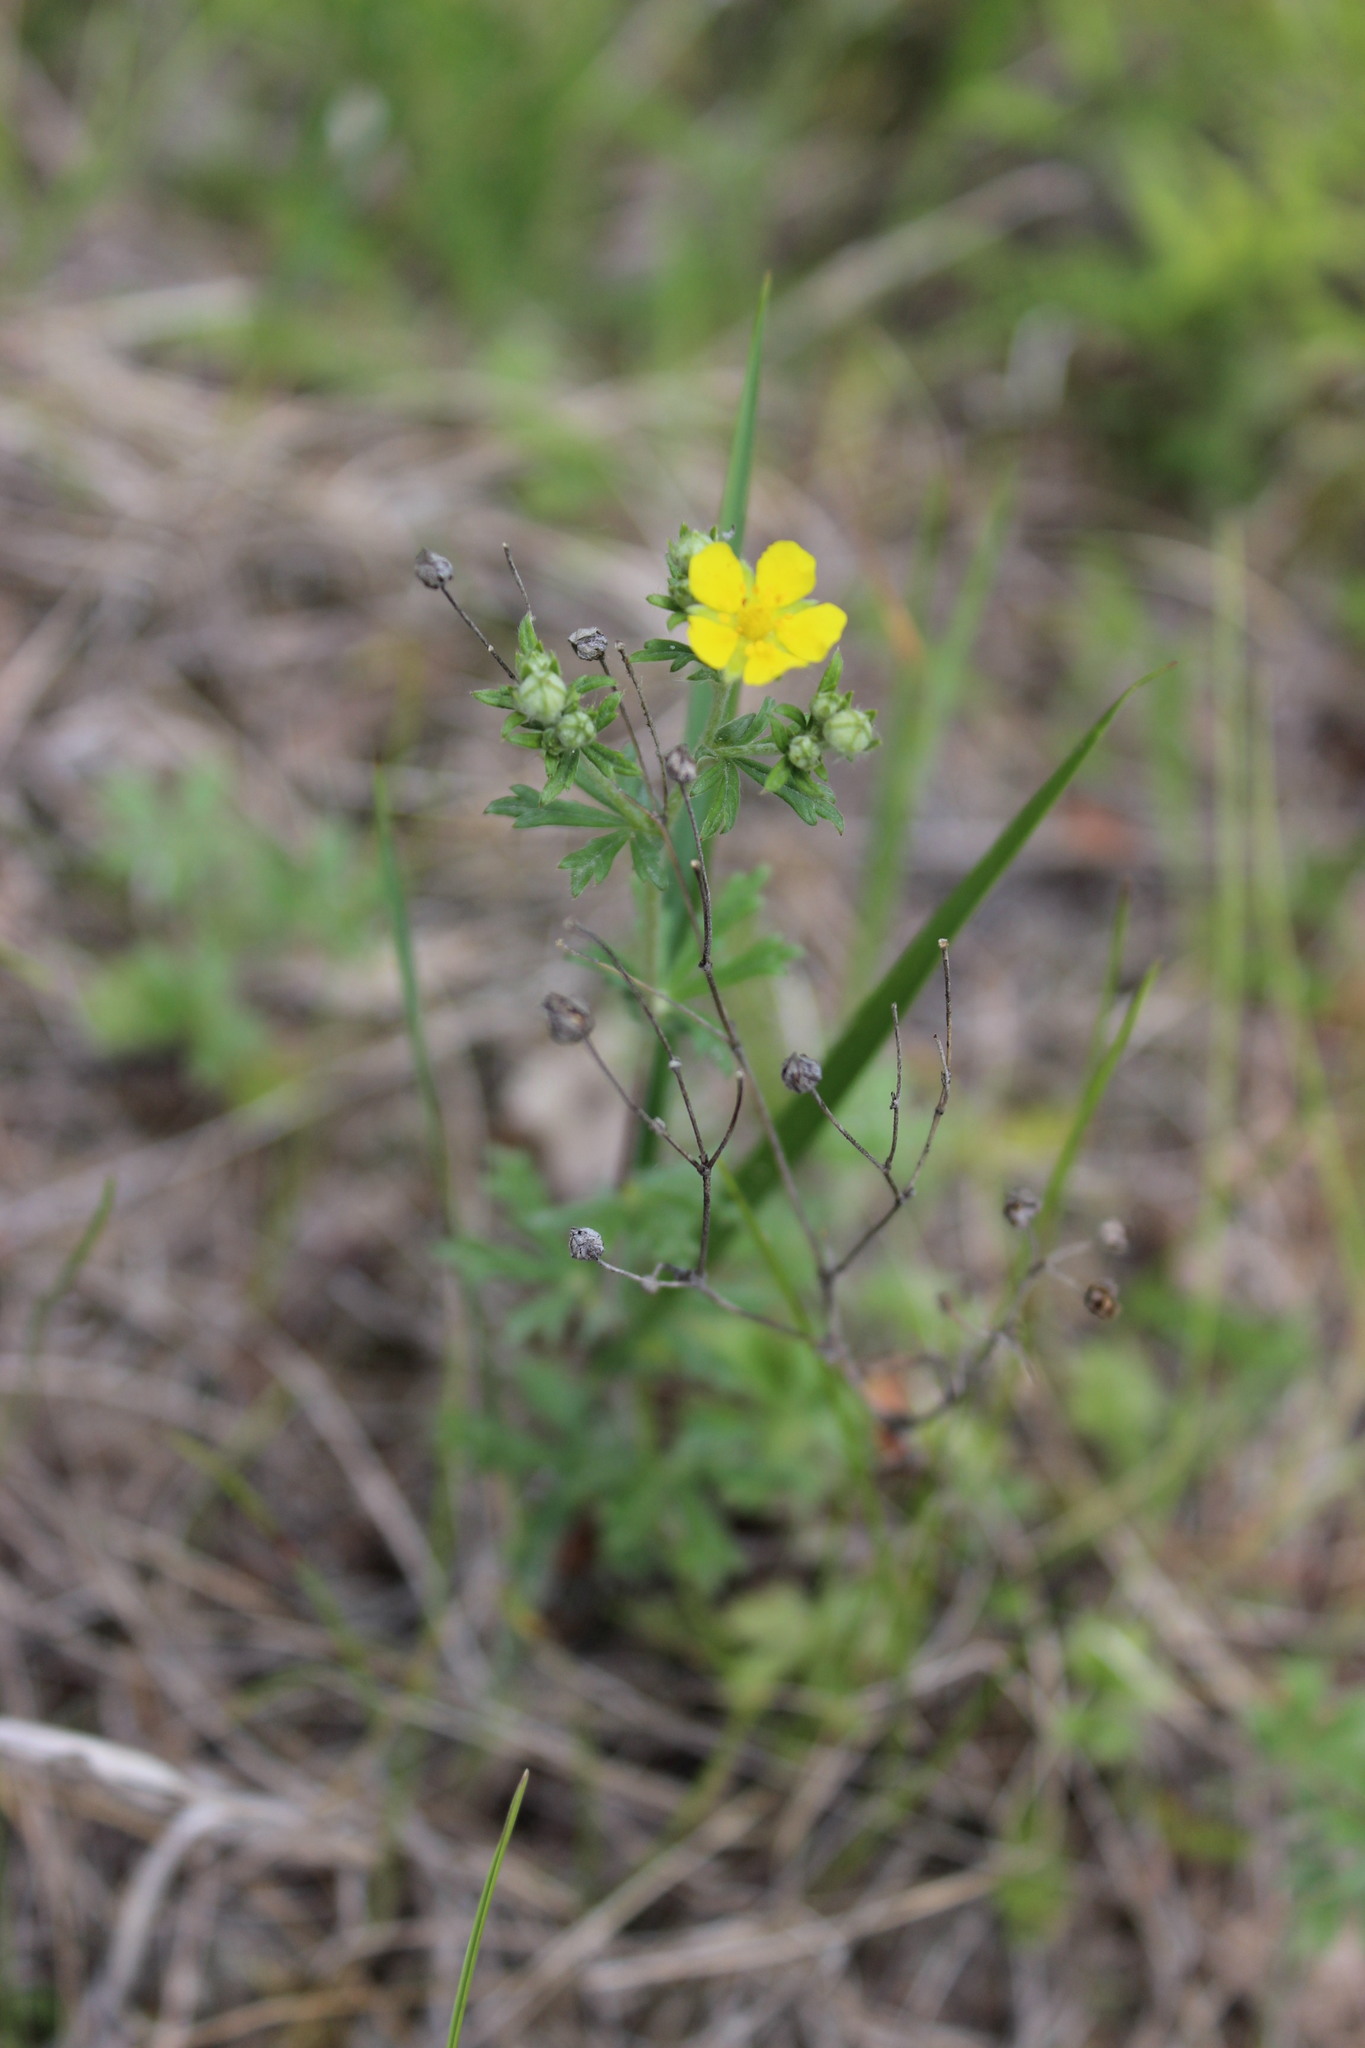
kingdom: Plantae
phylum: Tracheophyta
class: Magnoliopsida
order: Rosales
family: Rosaceae
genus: Potentilla
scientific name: Potentilla argentea
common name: Hoary cinquefoil
